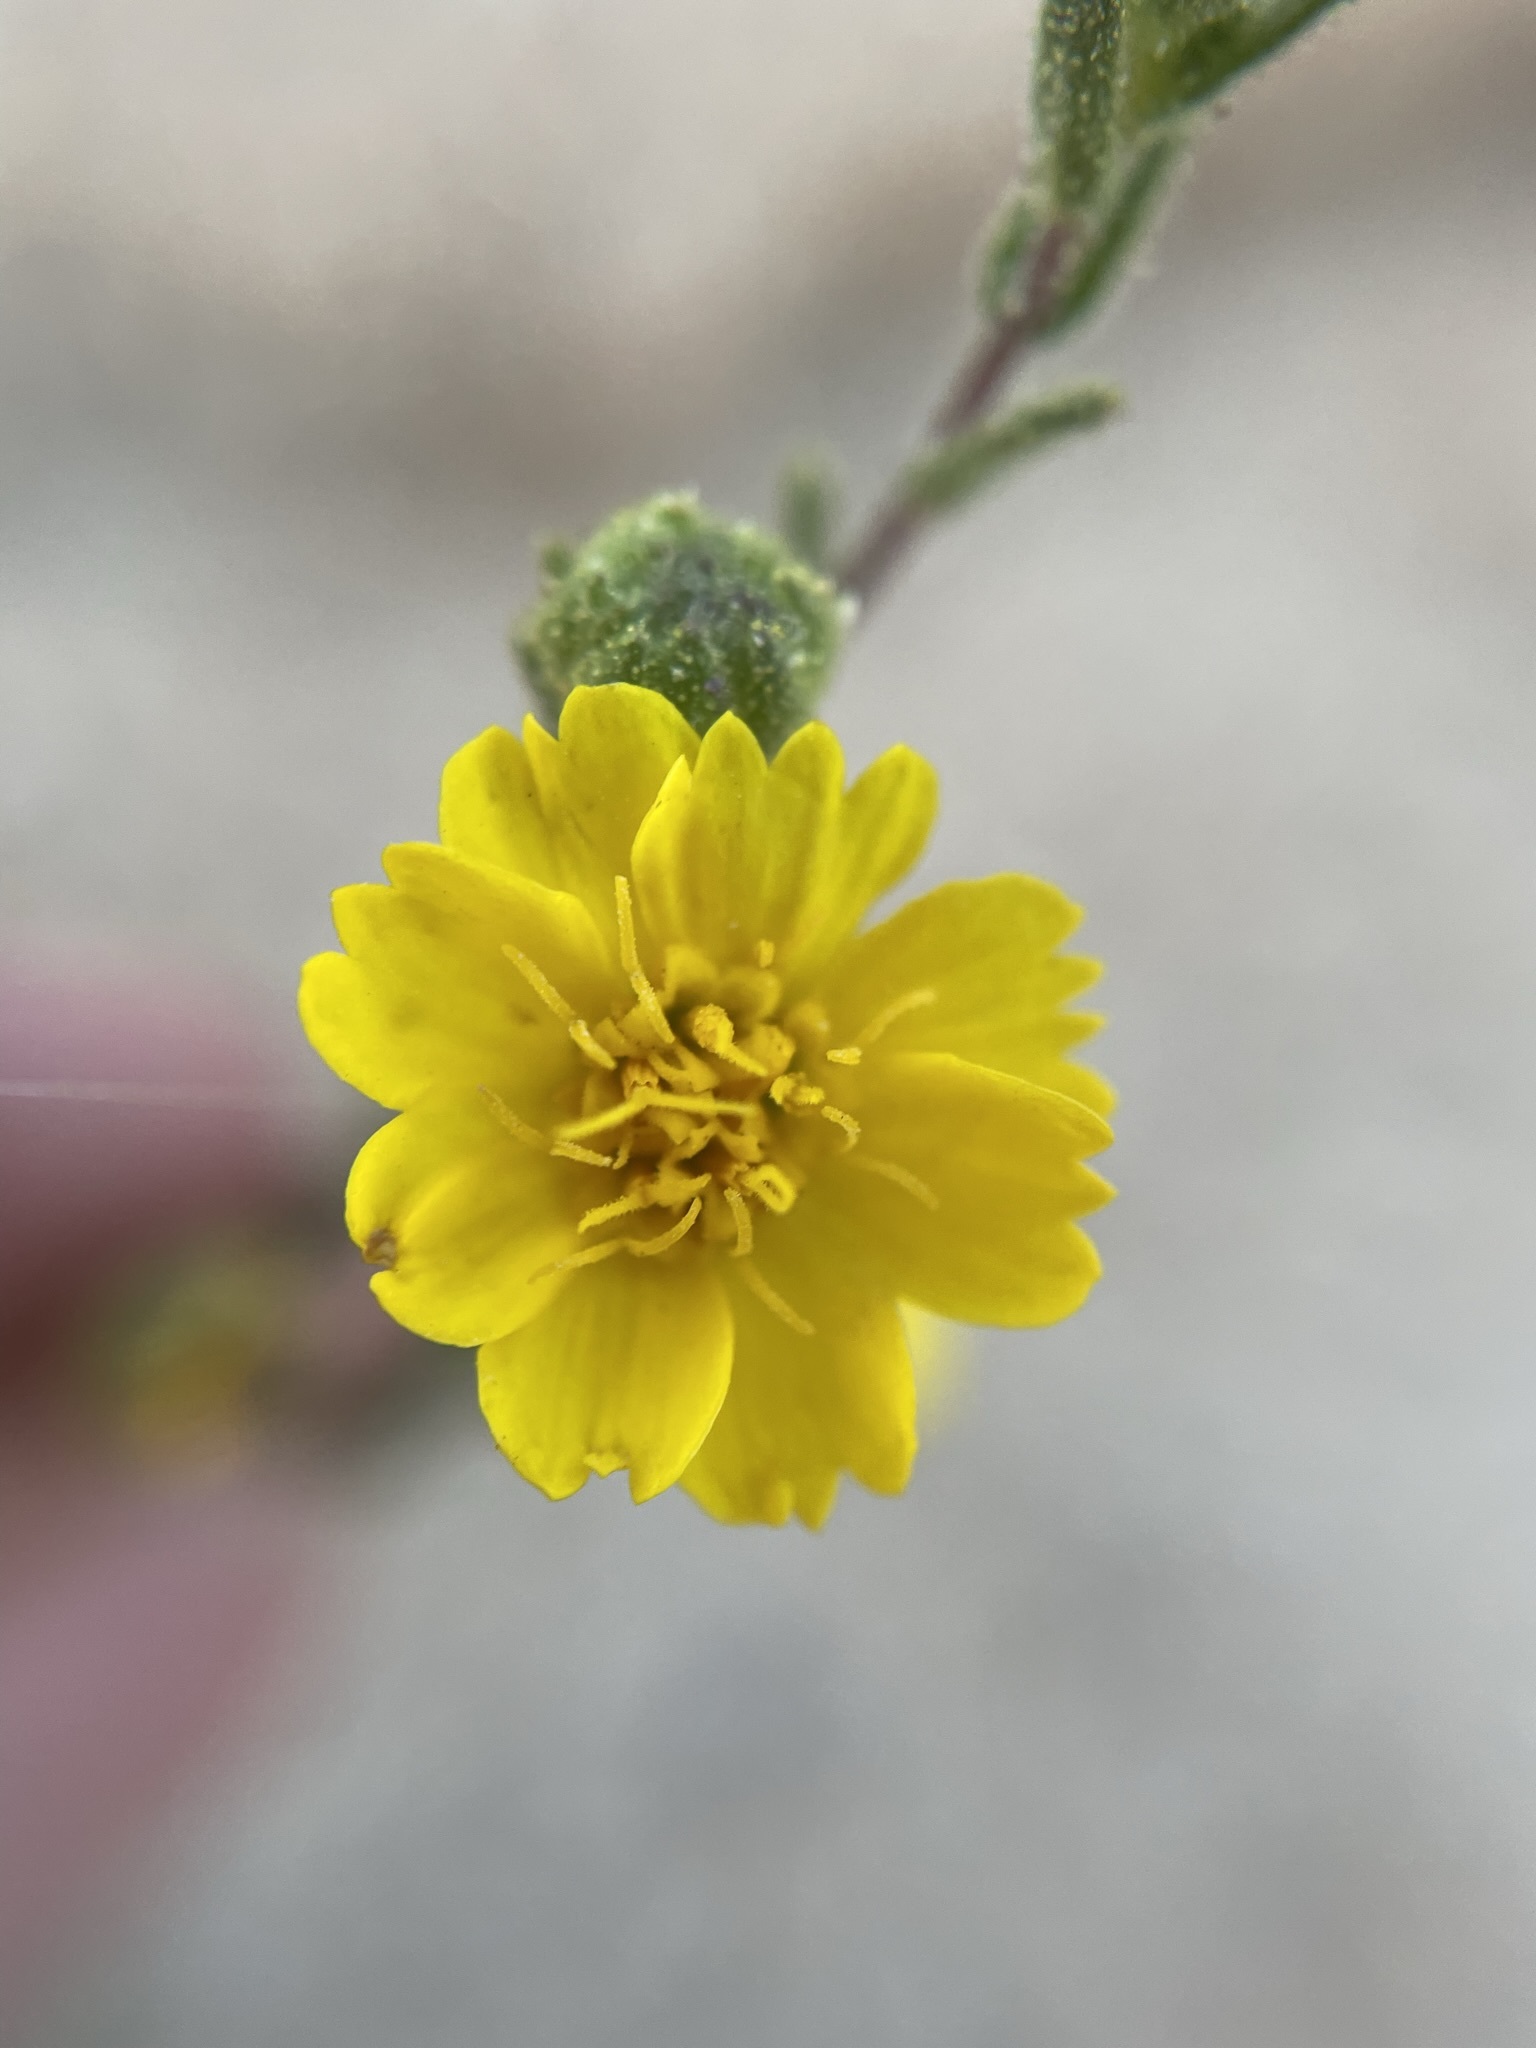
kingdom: Plantae
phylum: Tracheophyta
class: Magnoliopsida
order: Asterales
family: Asteraceae
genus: Deinandra
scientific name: Deinandra arida
